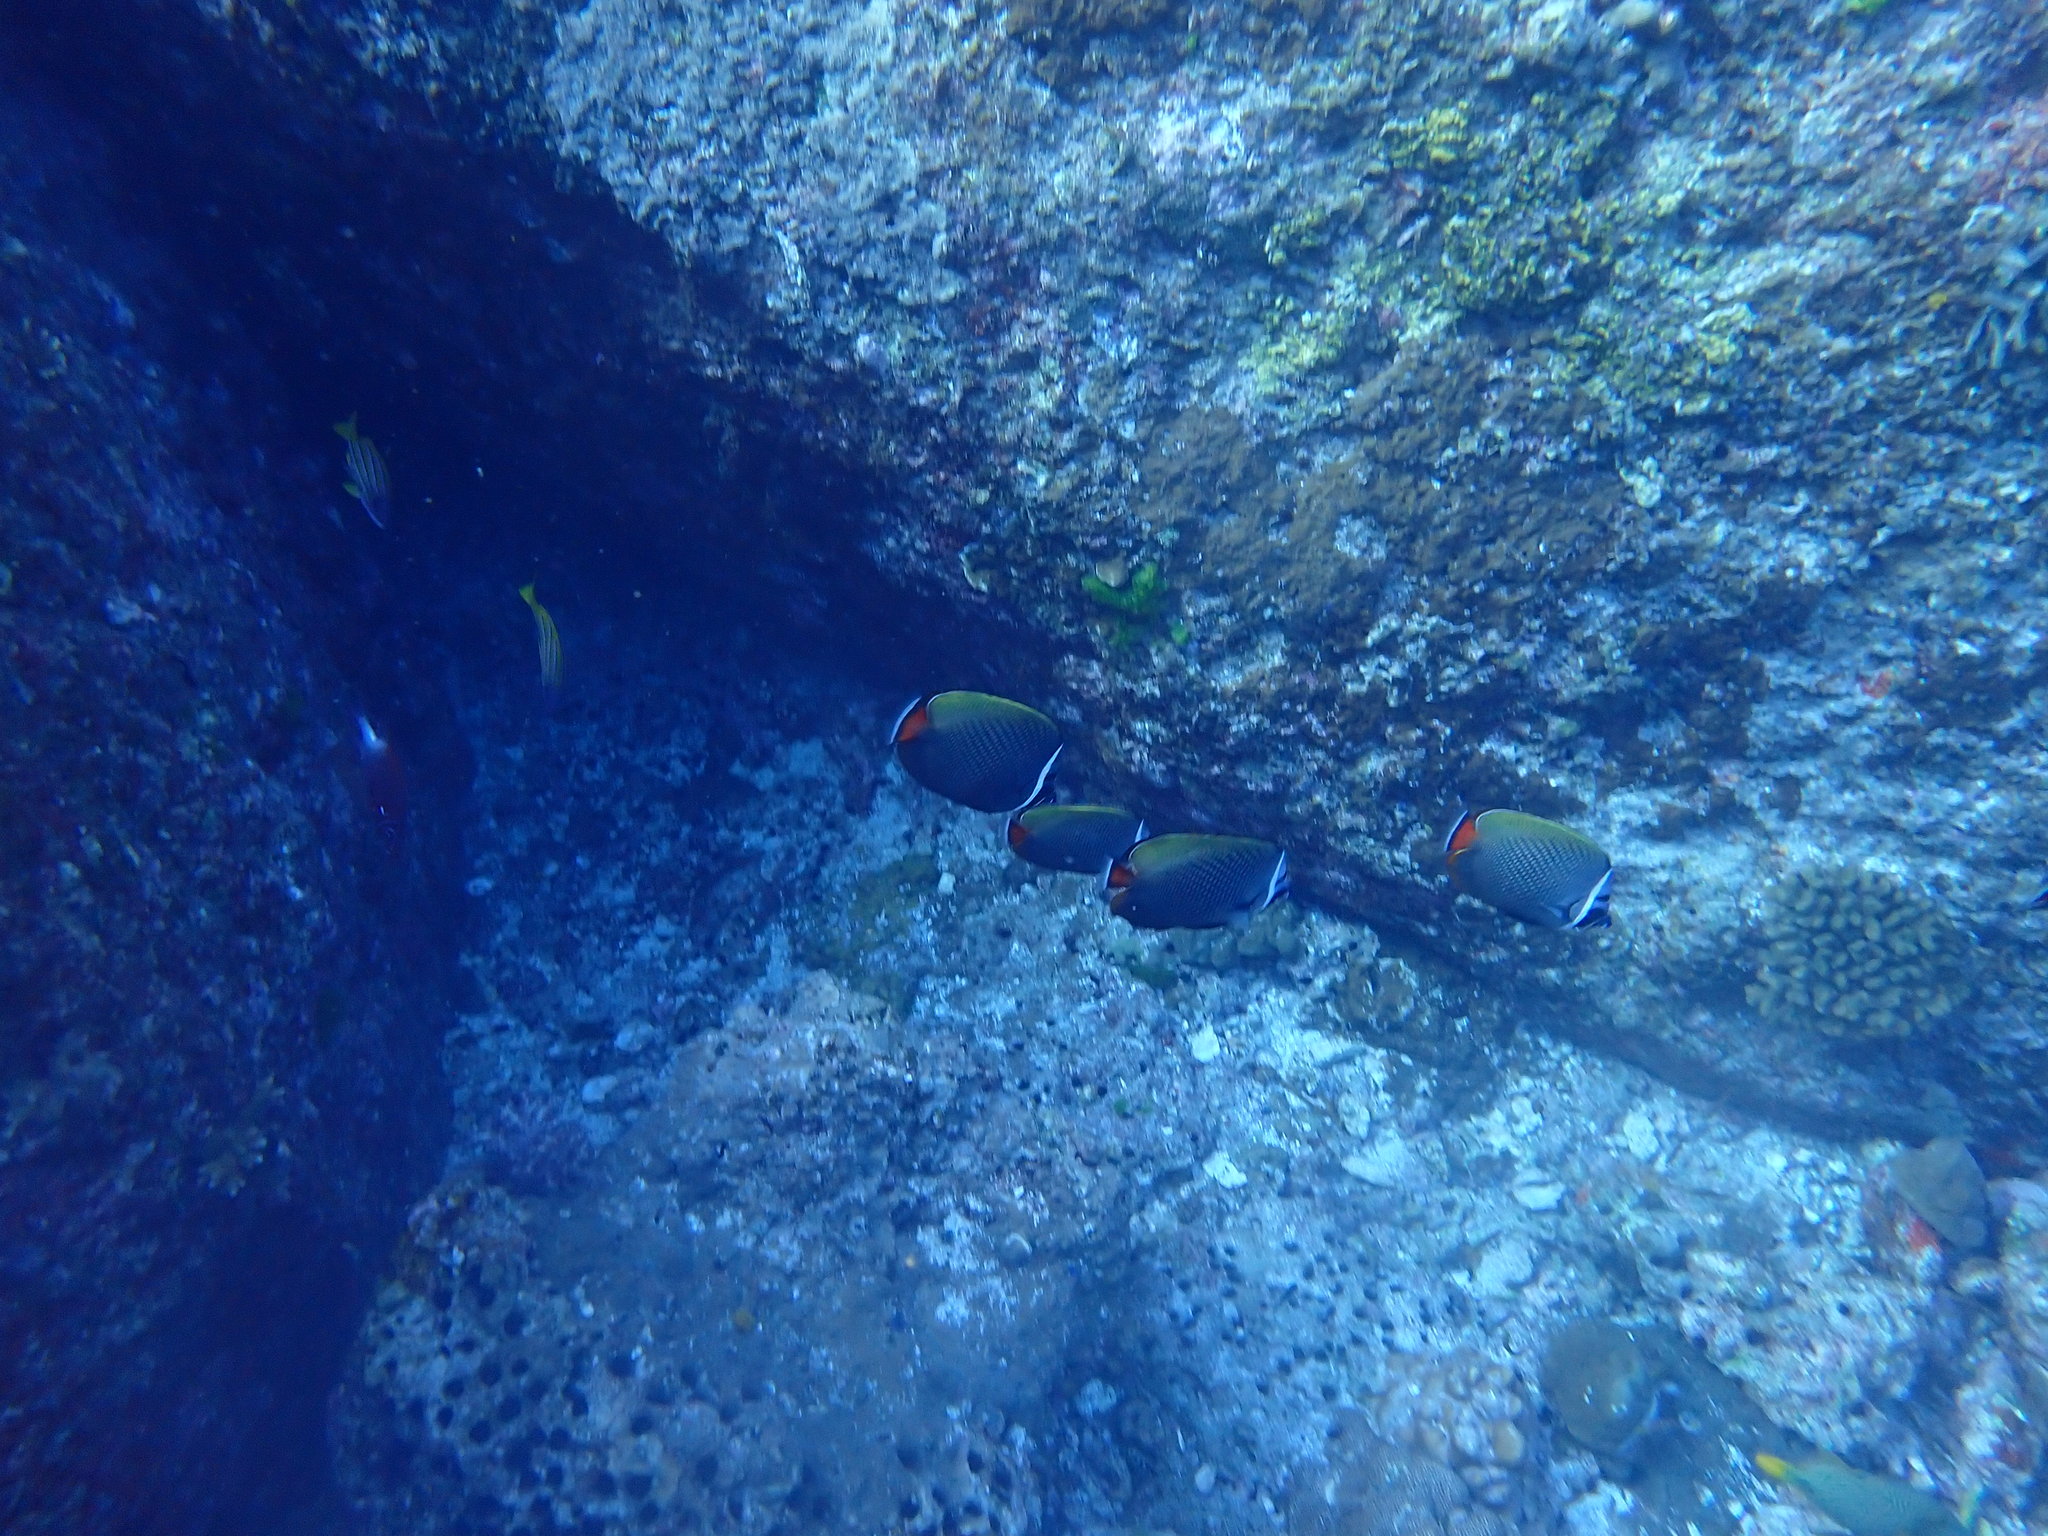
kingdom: Animalia
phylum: Chordata
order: Perciformes
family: Chaetodontidae
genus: Chaetodon
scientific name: Chaetodon collare
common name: Redtail butterflyfish
